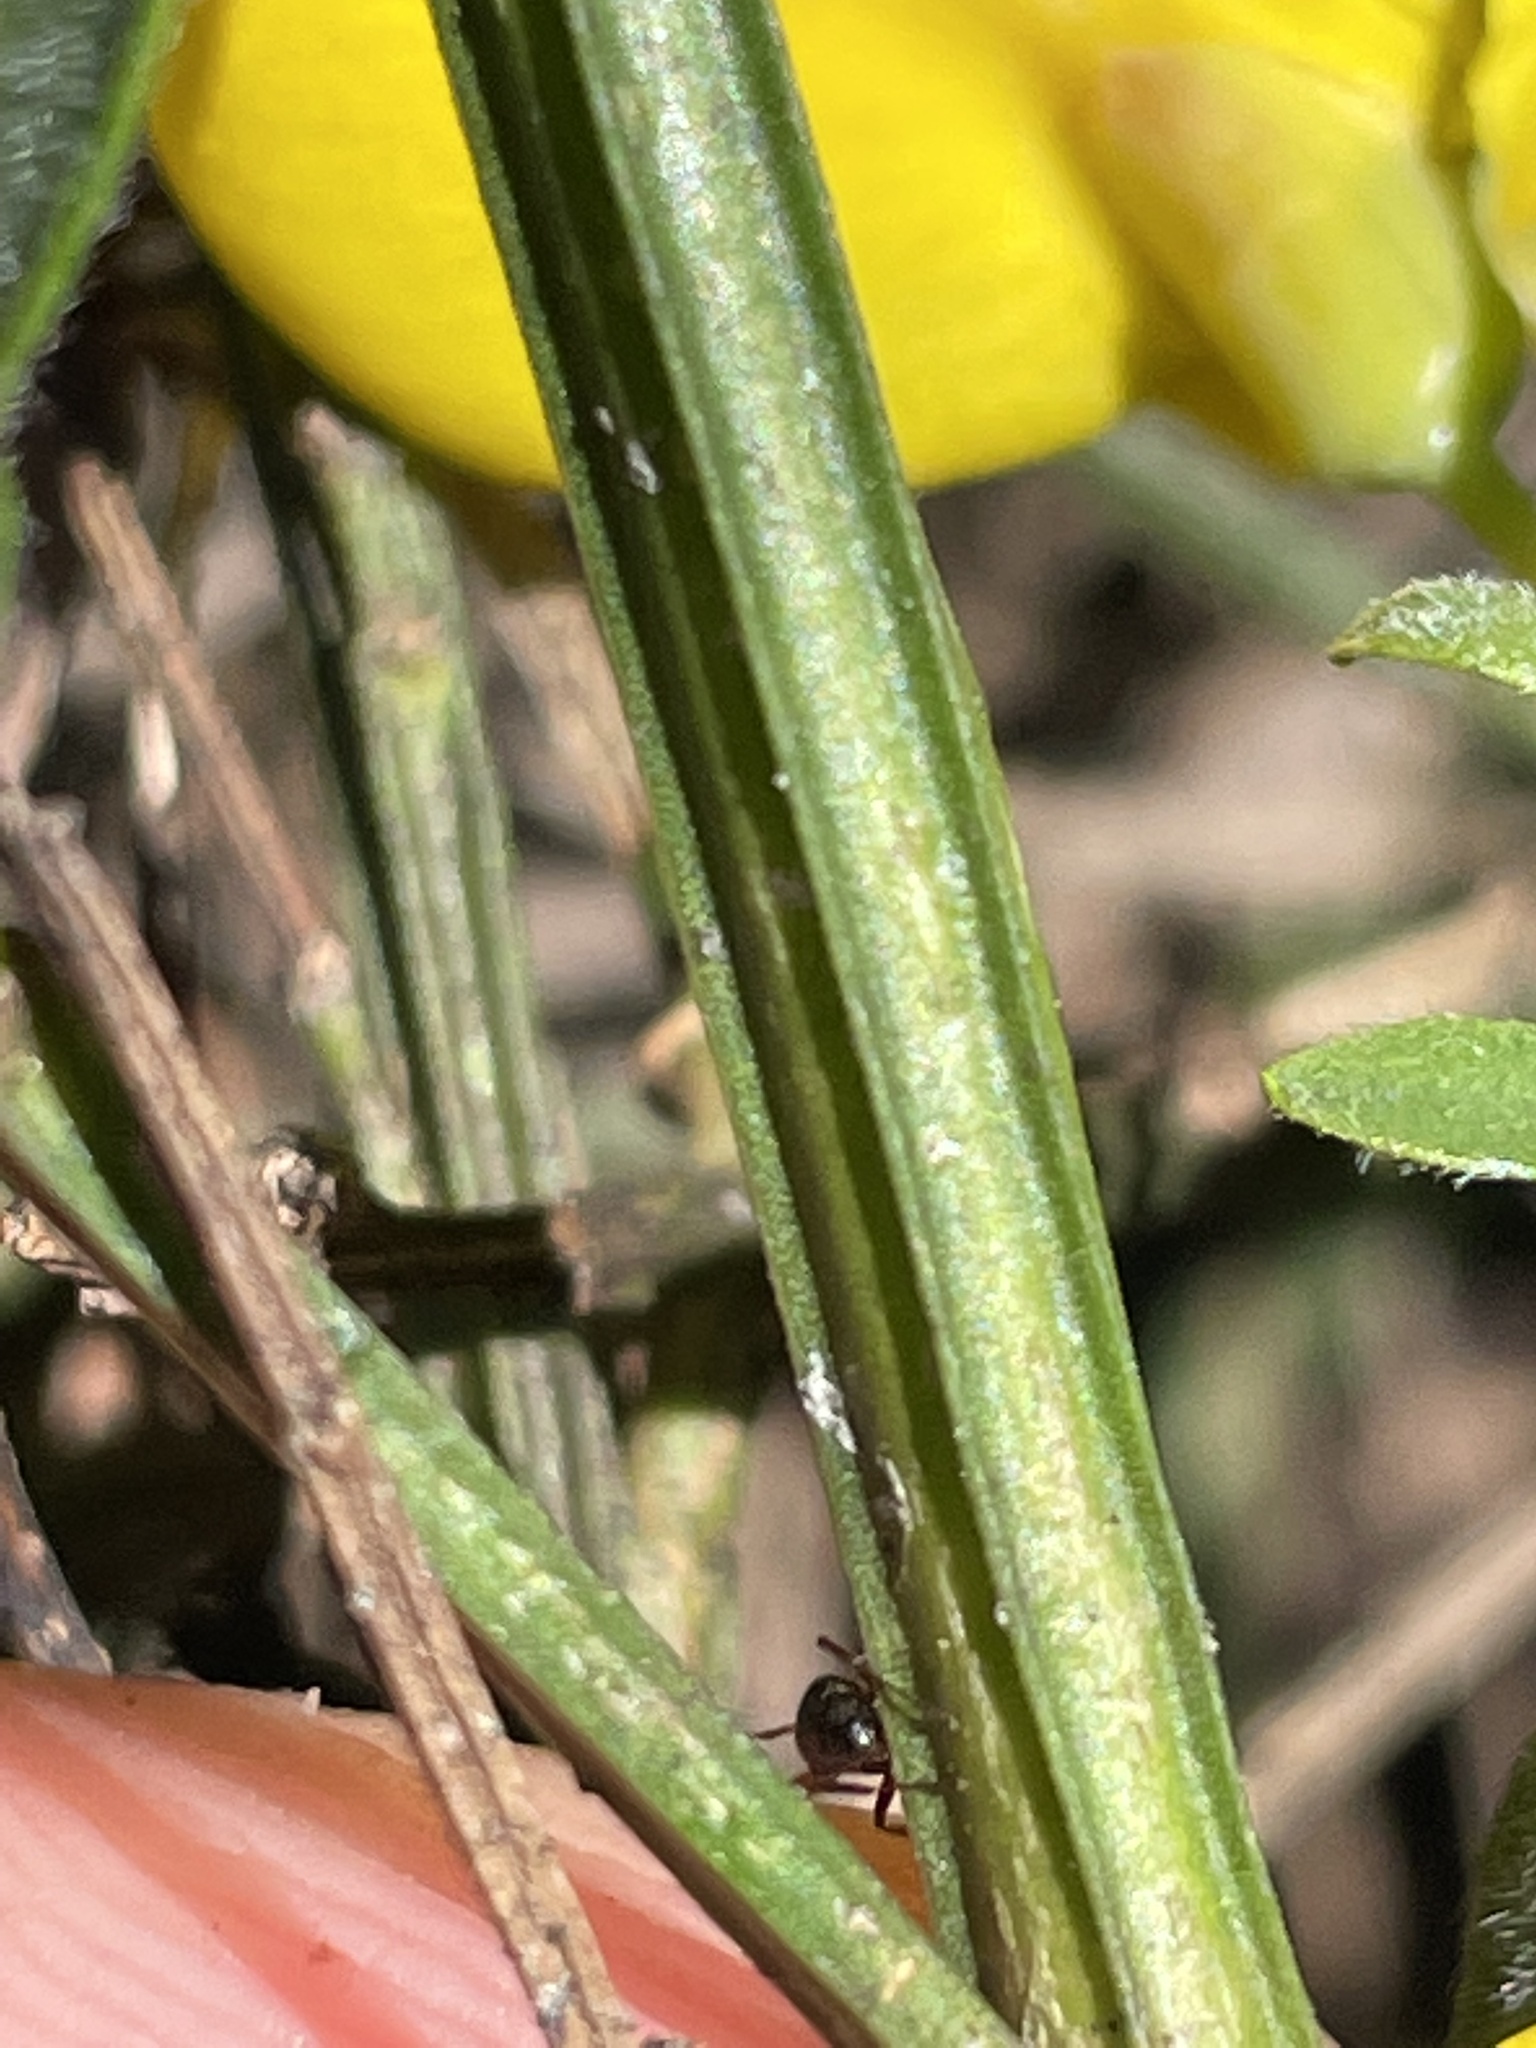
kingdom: Plantae
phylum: Tracheophyta
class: Magnoliopsida
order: Fabales
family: Fabaceae
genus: Cytisus
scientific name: Cytisus scoparius
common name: Scotch broom
